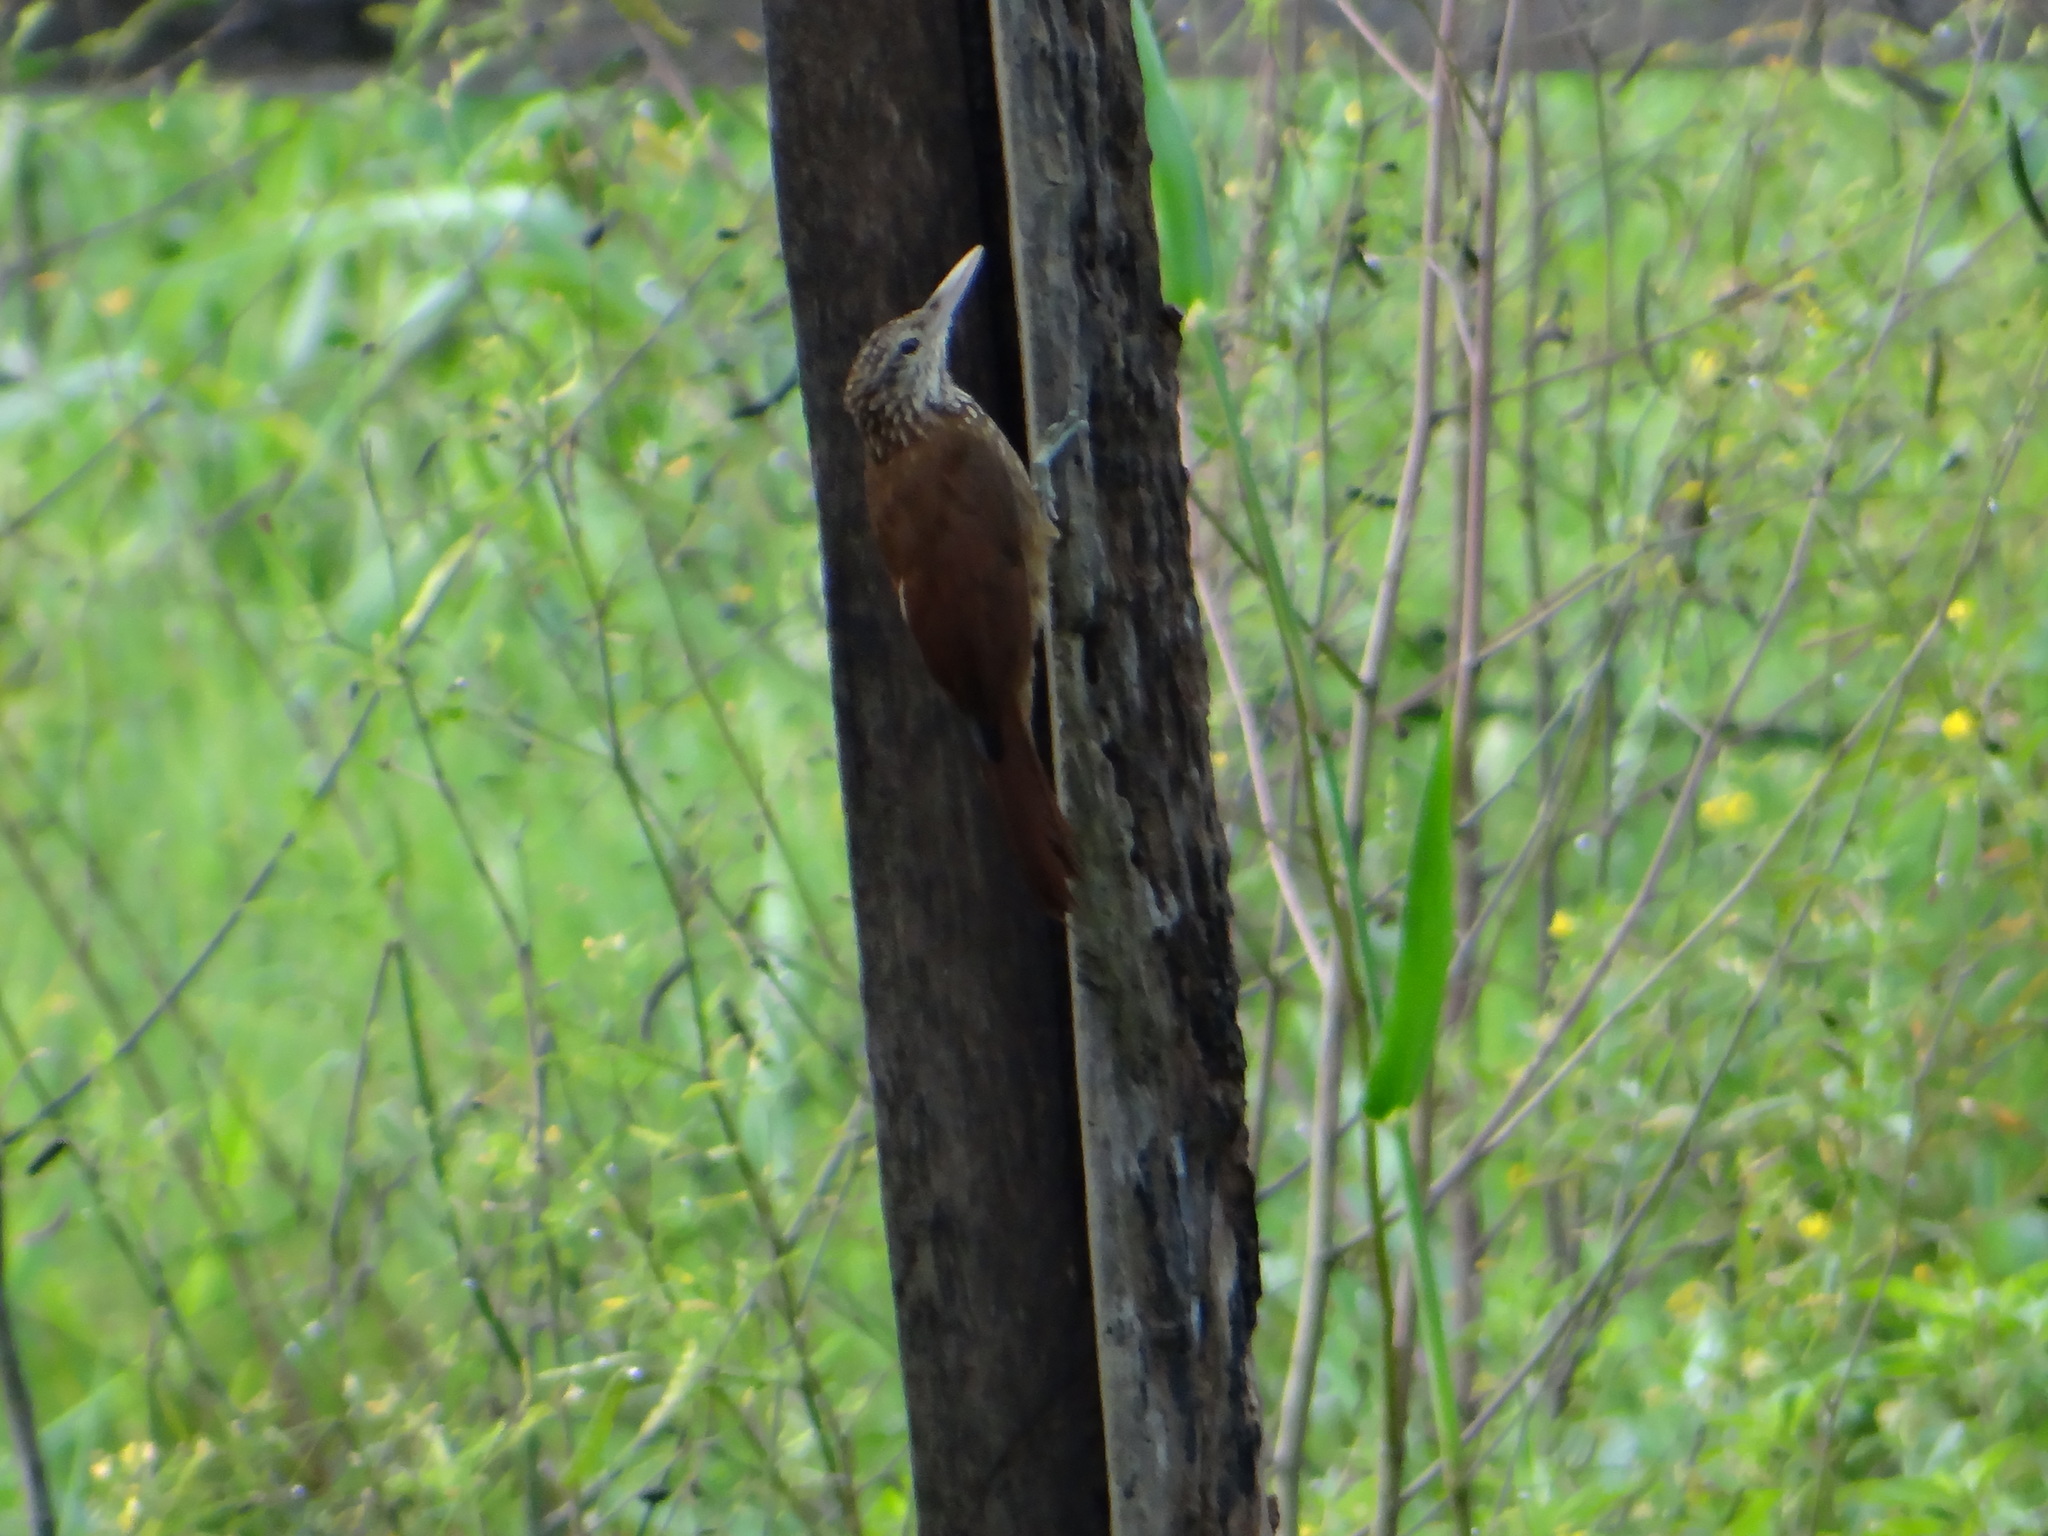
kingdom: Animalia
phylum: Chordata
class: Aves
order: Passeriformes
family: Furnariidae
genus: Xiphorhynchus
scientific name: Xiphorhynchus picus
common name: Straight-billed woodcreeper
